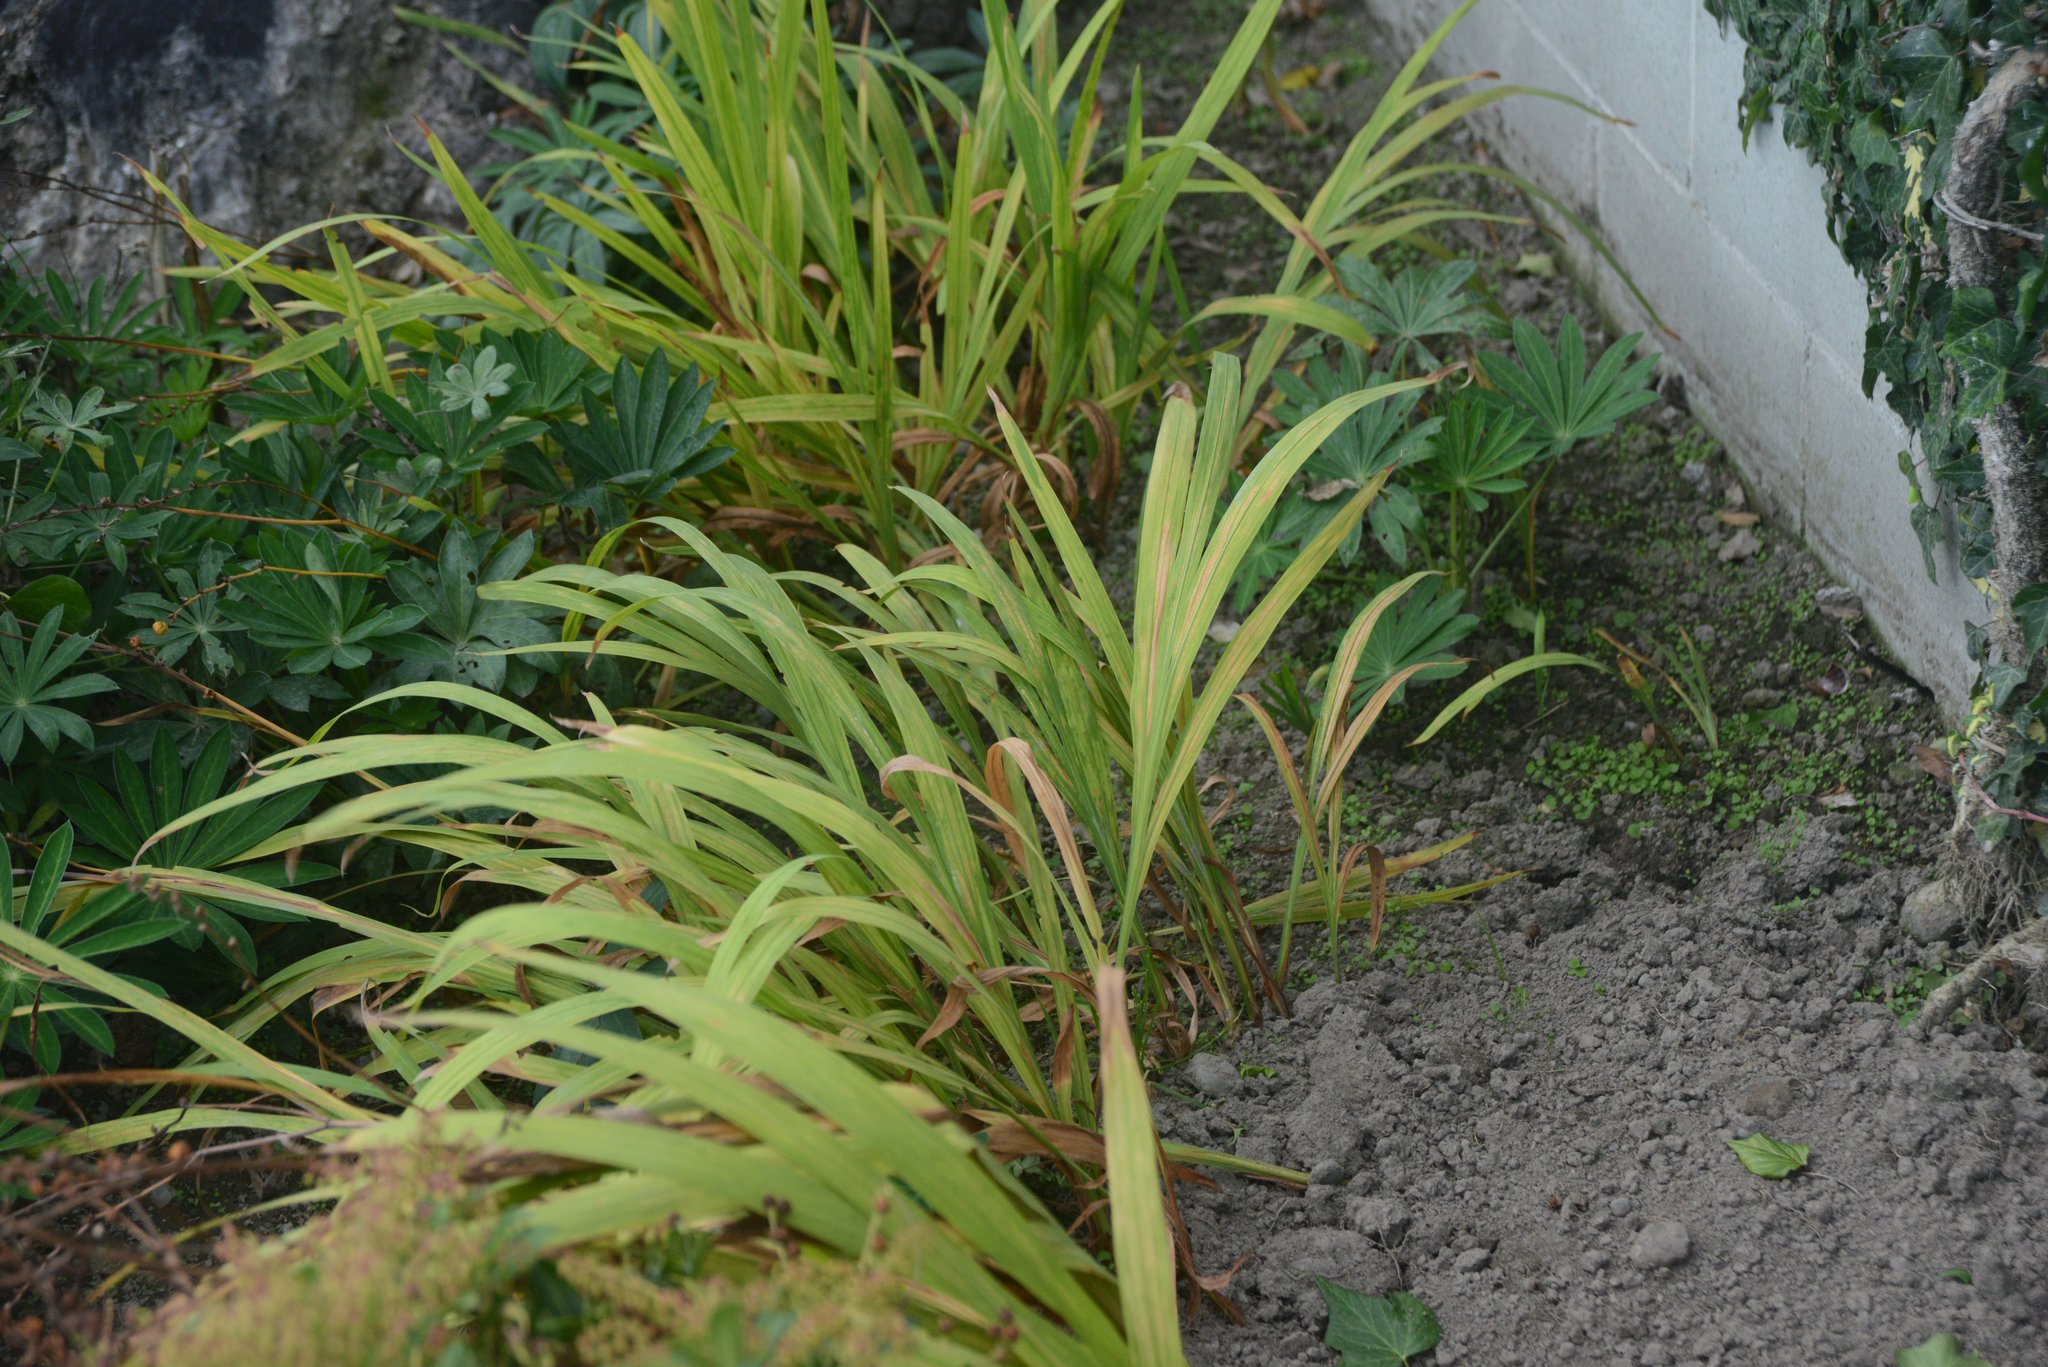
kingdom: Plantae
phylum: Tracheophyta
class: Liliopsida
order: Asparagales
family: Iridaceae
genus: Crocosmia
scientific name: Crocosmia crocosmiiflora
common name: Montbretia
